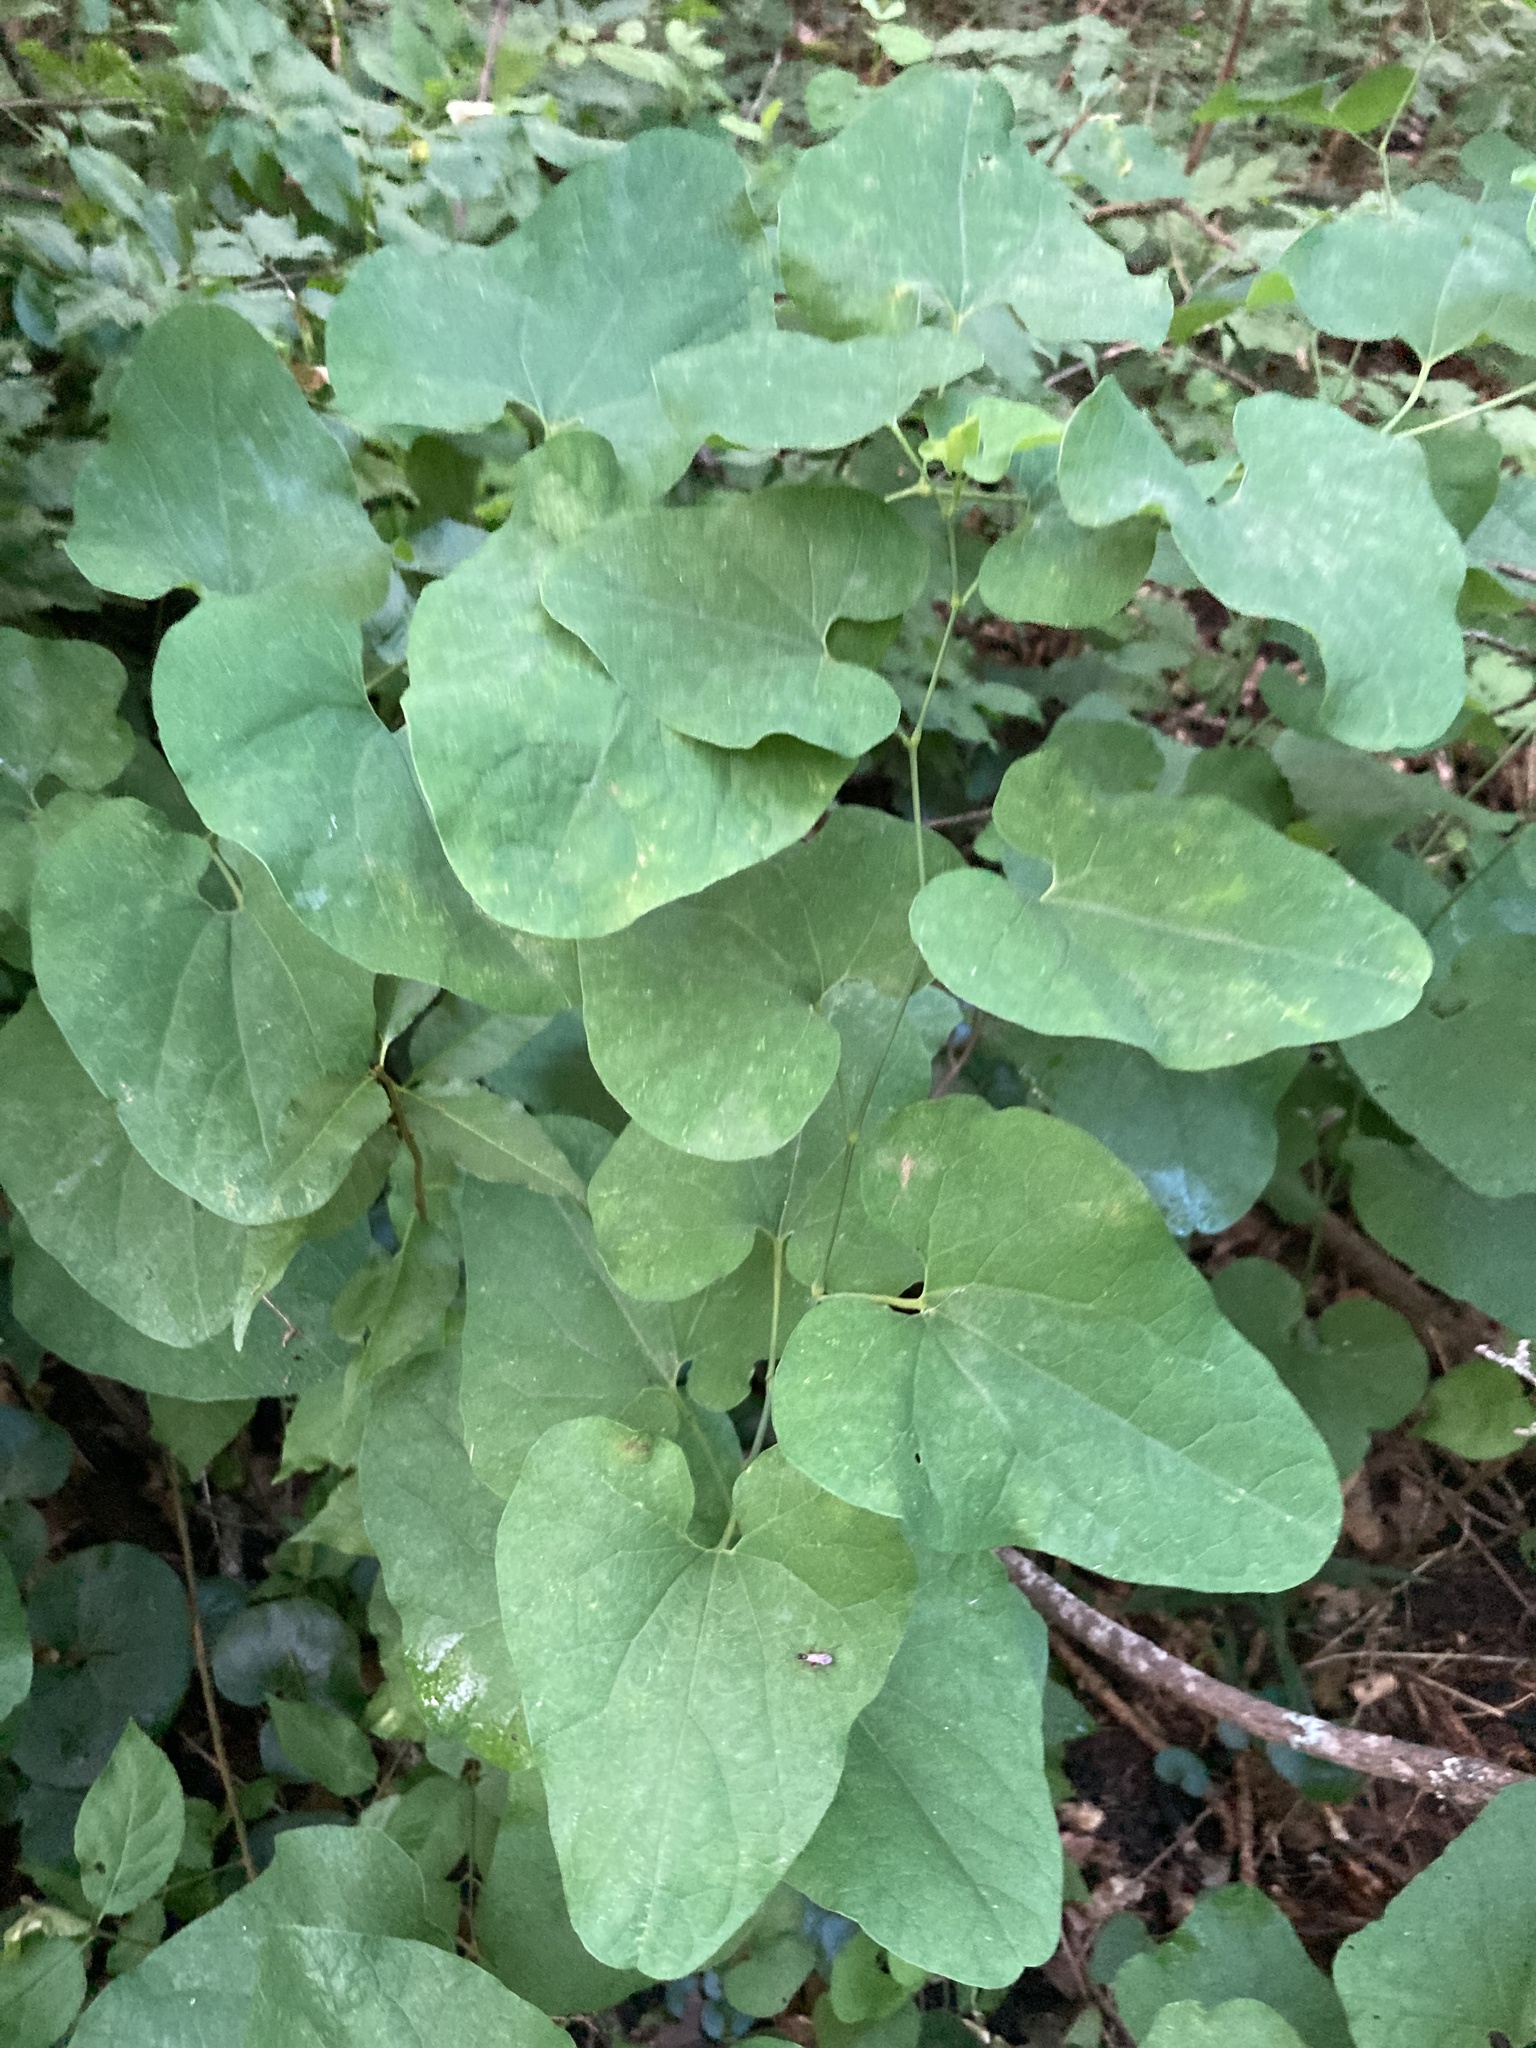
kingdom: Plantae
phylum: Tracheophyta
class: Magnoliopsida
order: Piperales
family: Aristolochiaceae
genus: Aristolochia
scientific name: Aristolochia clematitis
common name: Birthwort
